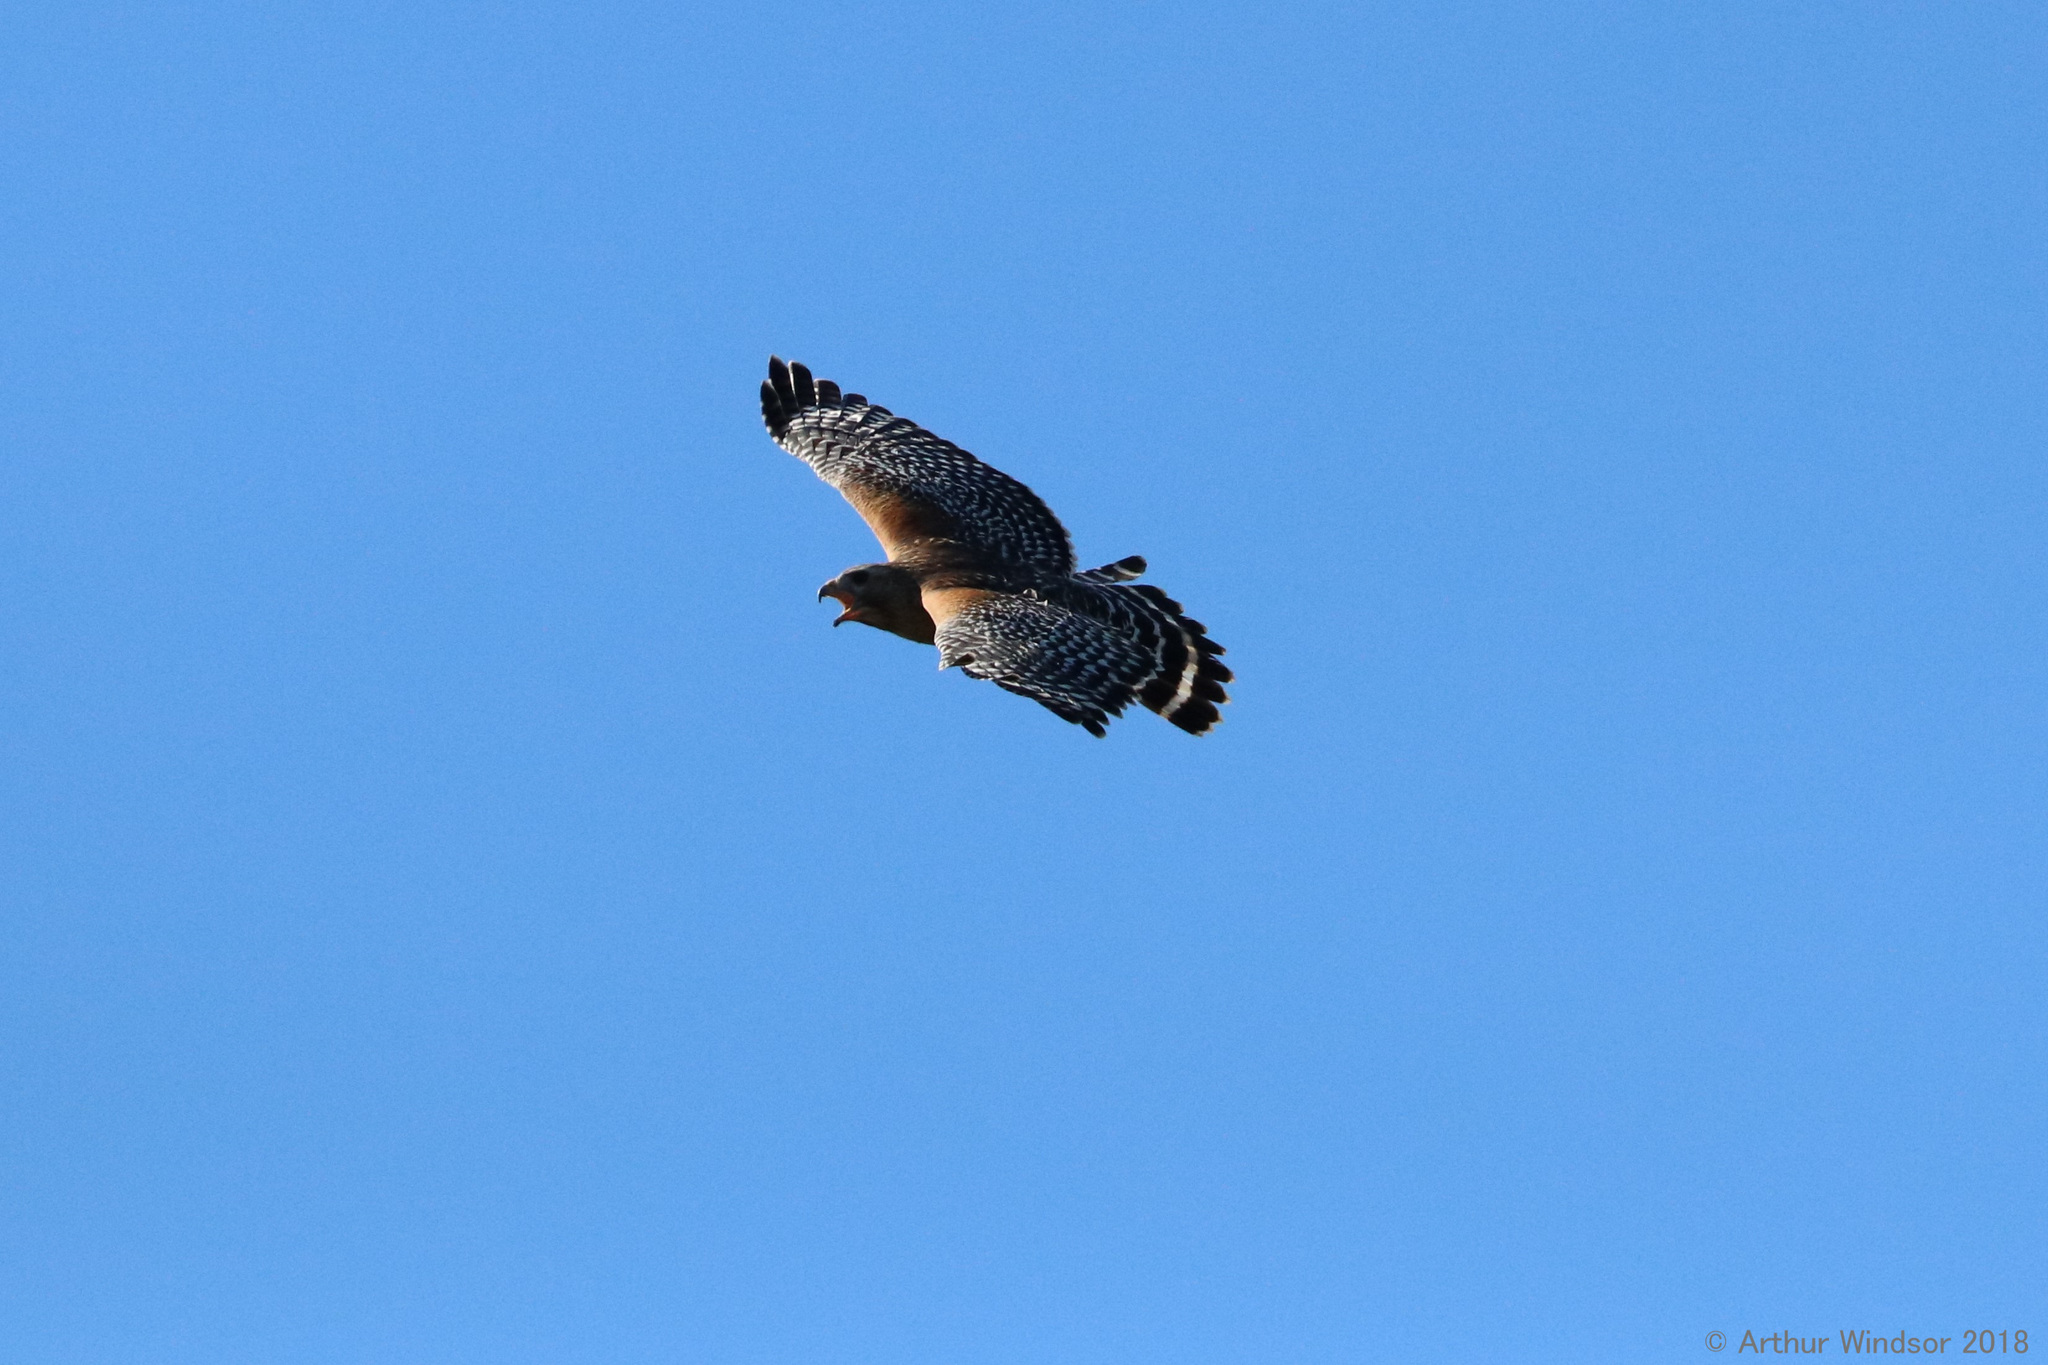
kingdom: Animalia
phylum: Chordata
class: Aves
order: Accipitriformes
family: Accipitridae
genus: Buteo
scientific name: Buteo lineatus
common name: Red-shouldered hawk
